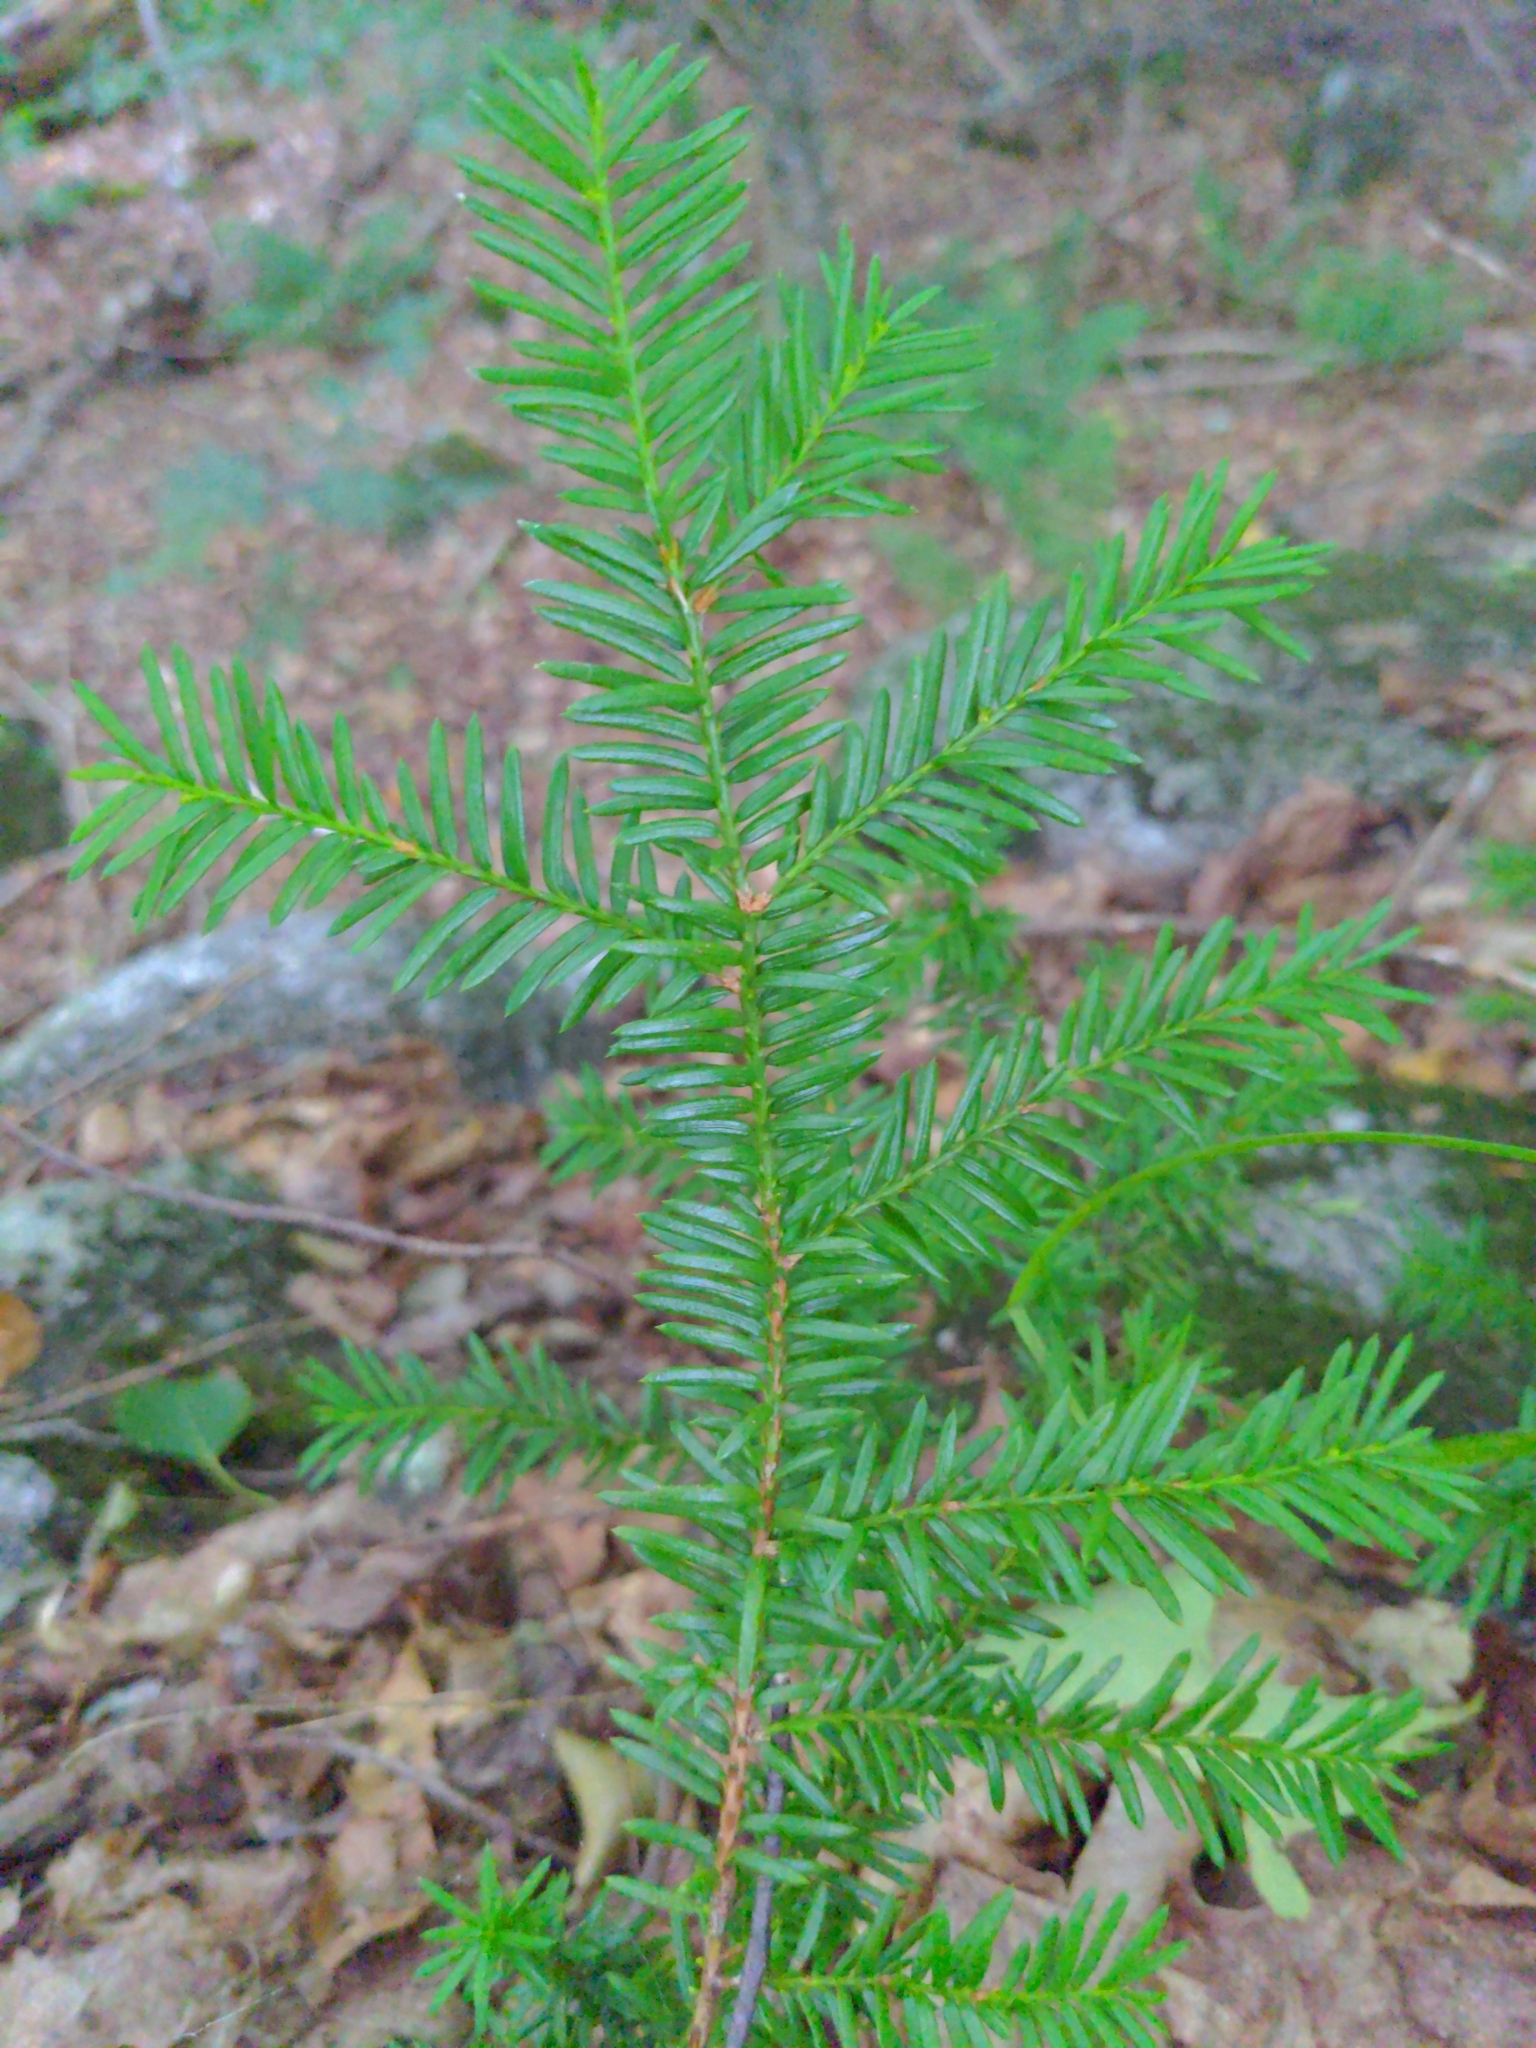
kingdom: Plantae
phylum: Tracheophyta
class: Pinopsida
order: Pinales
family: Taxaceae
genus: Taxus
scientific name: Taxus canadensis
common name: American yew
